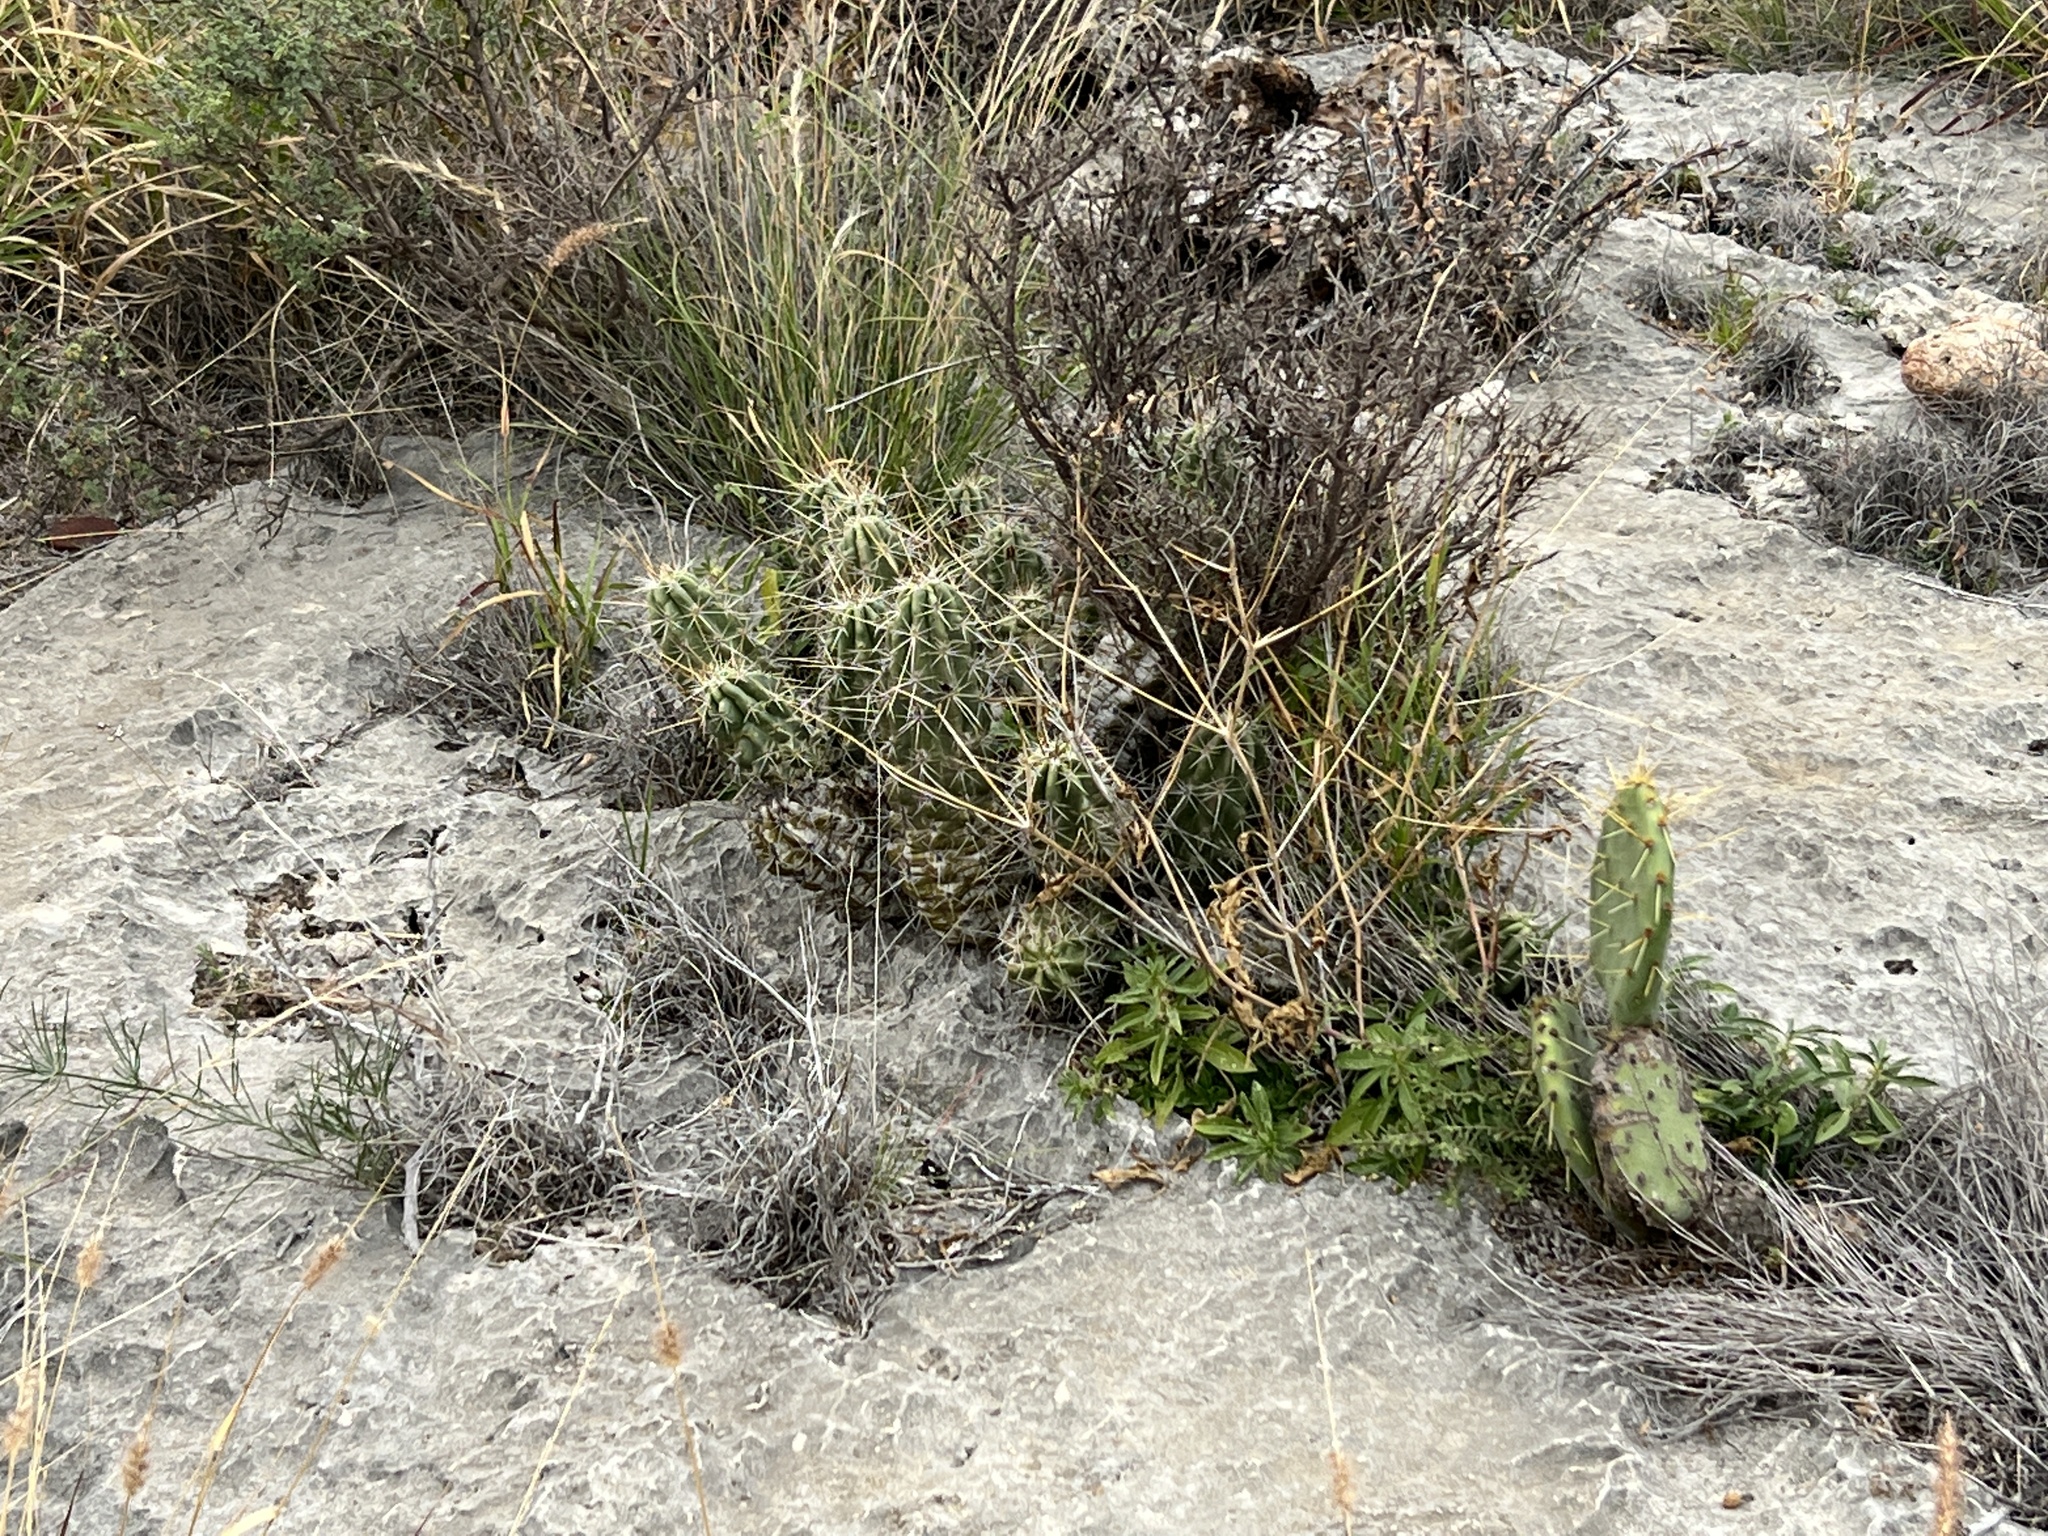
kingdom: Plantae
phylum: Tracheophyta
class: Magnoliopsida
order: Caryophyllales
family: Cactaceae
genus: Echinocereus
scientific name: Echinocereus enneacanthus
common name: Pitaya
